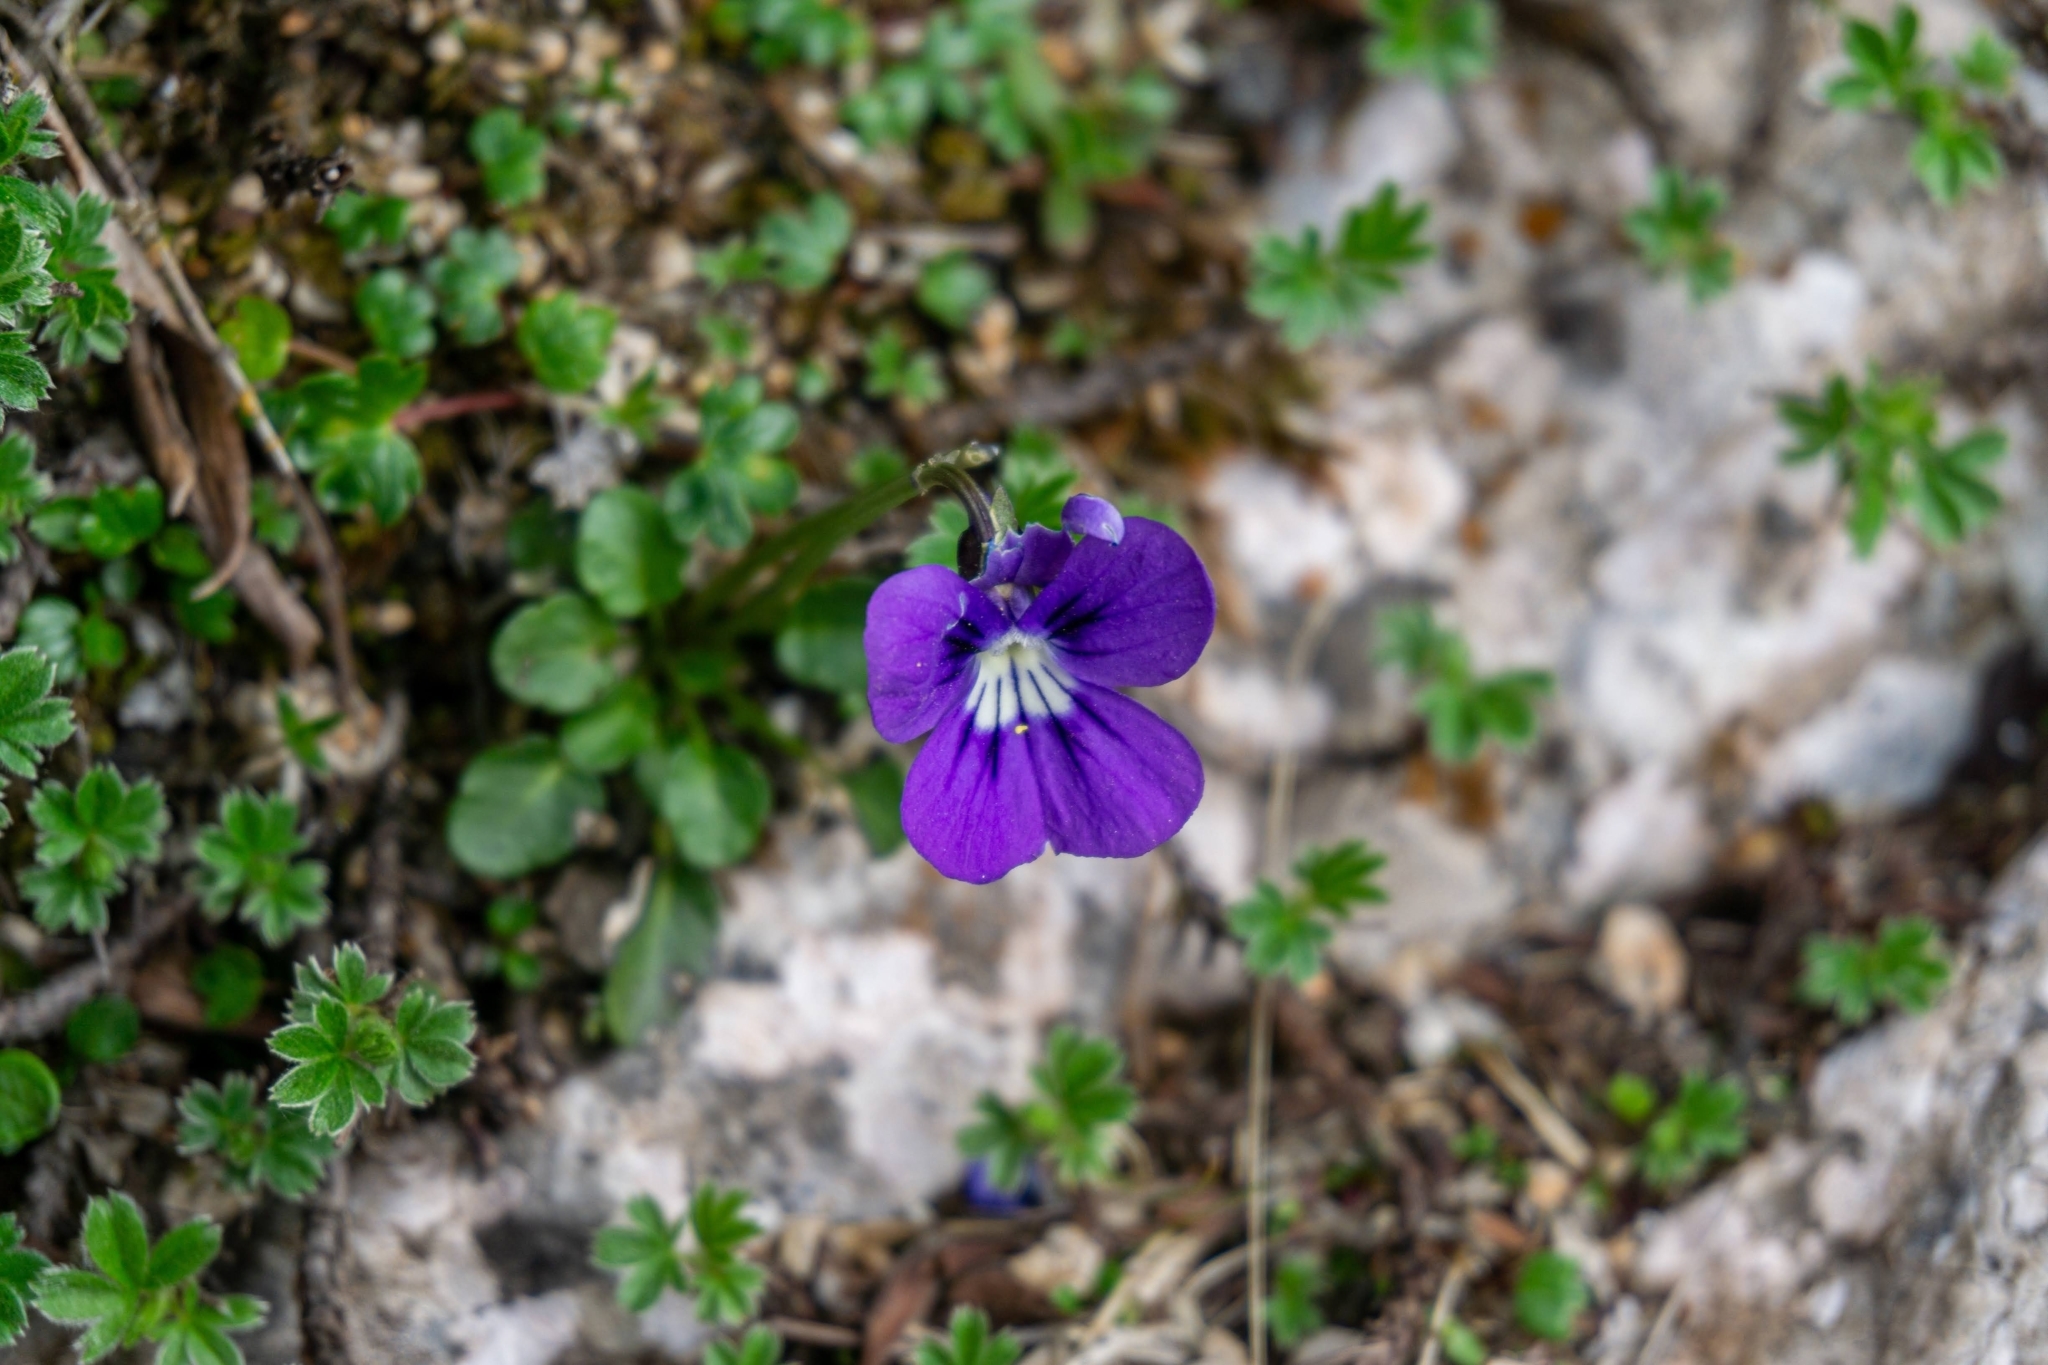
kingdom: Plantae
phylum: Tracheophyta
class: Magnoliopsida
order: Malpighiales
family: Violaceae
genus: Viola
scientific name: Viola alpina
